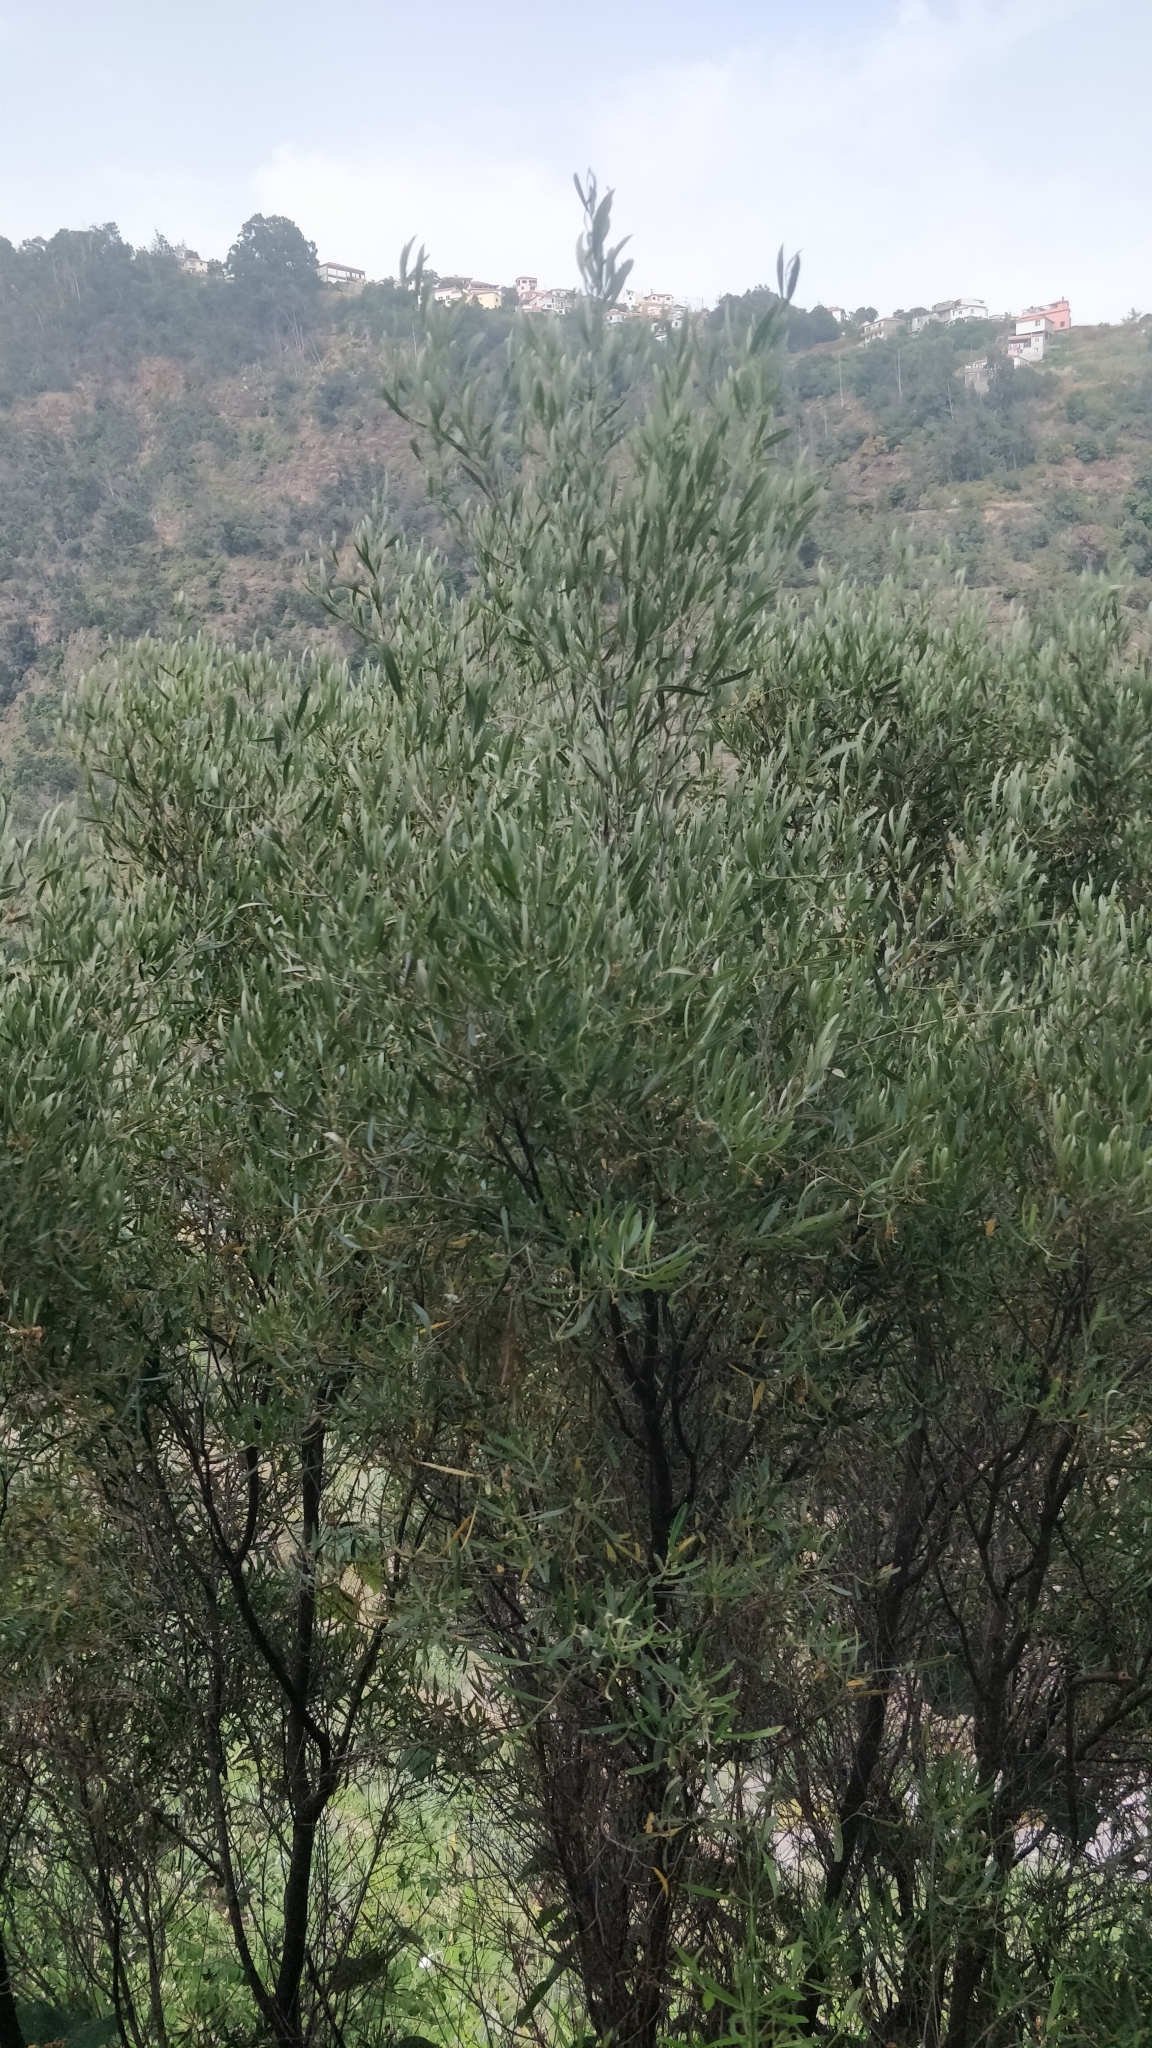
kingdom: Plantae
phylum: Tracheophyta
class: Magnoliopsida
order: Lamiales
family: Oleaceae
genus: Olea
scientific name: Olea europaea
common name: Olive
